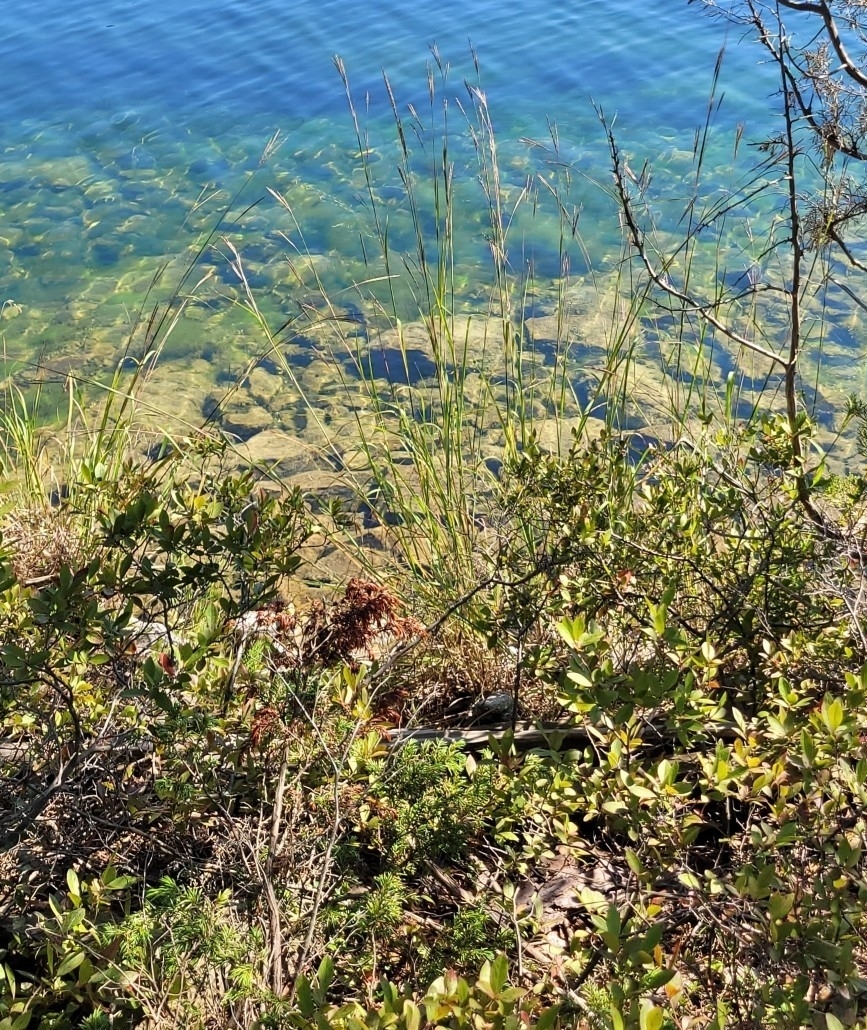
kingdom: Plantae
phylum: Tracheophyta
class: Liliopsida
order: Poales
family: Poaceae
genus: Andropogon
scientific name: Andropogon gerardi
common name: Big bluestem
